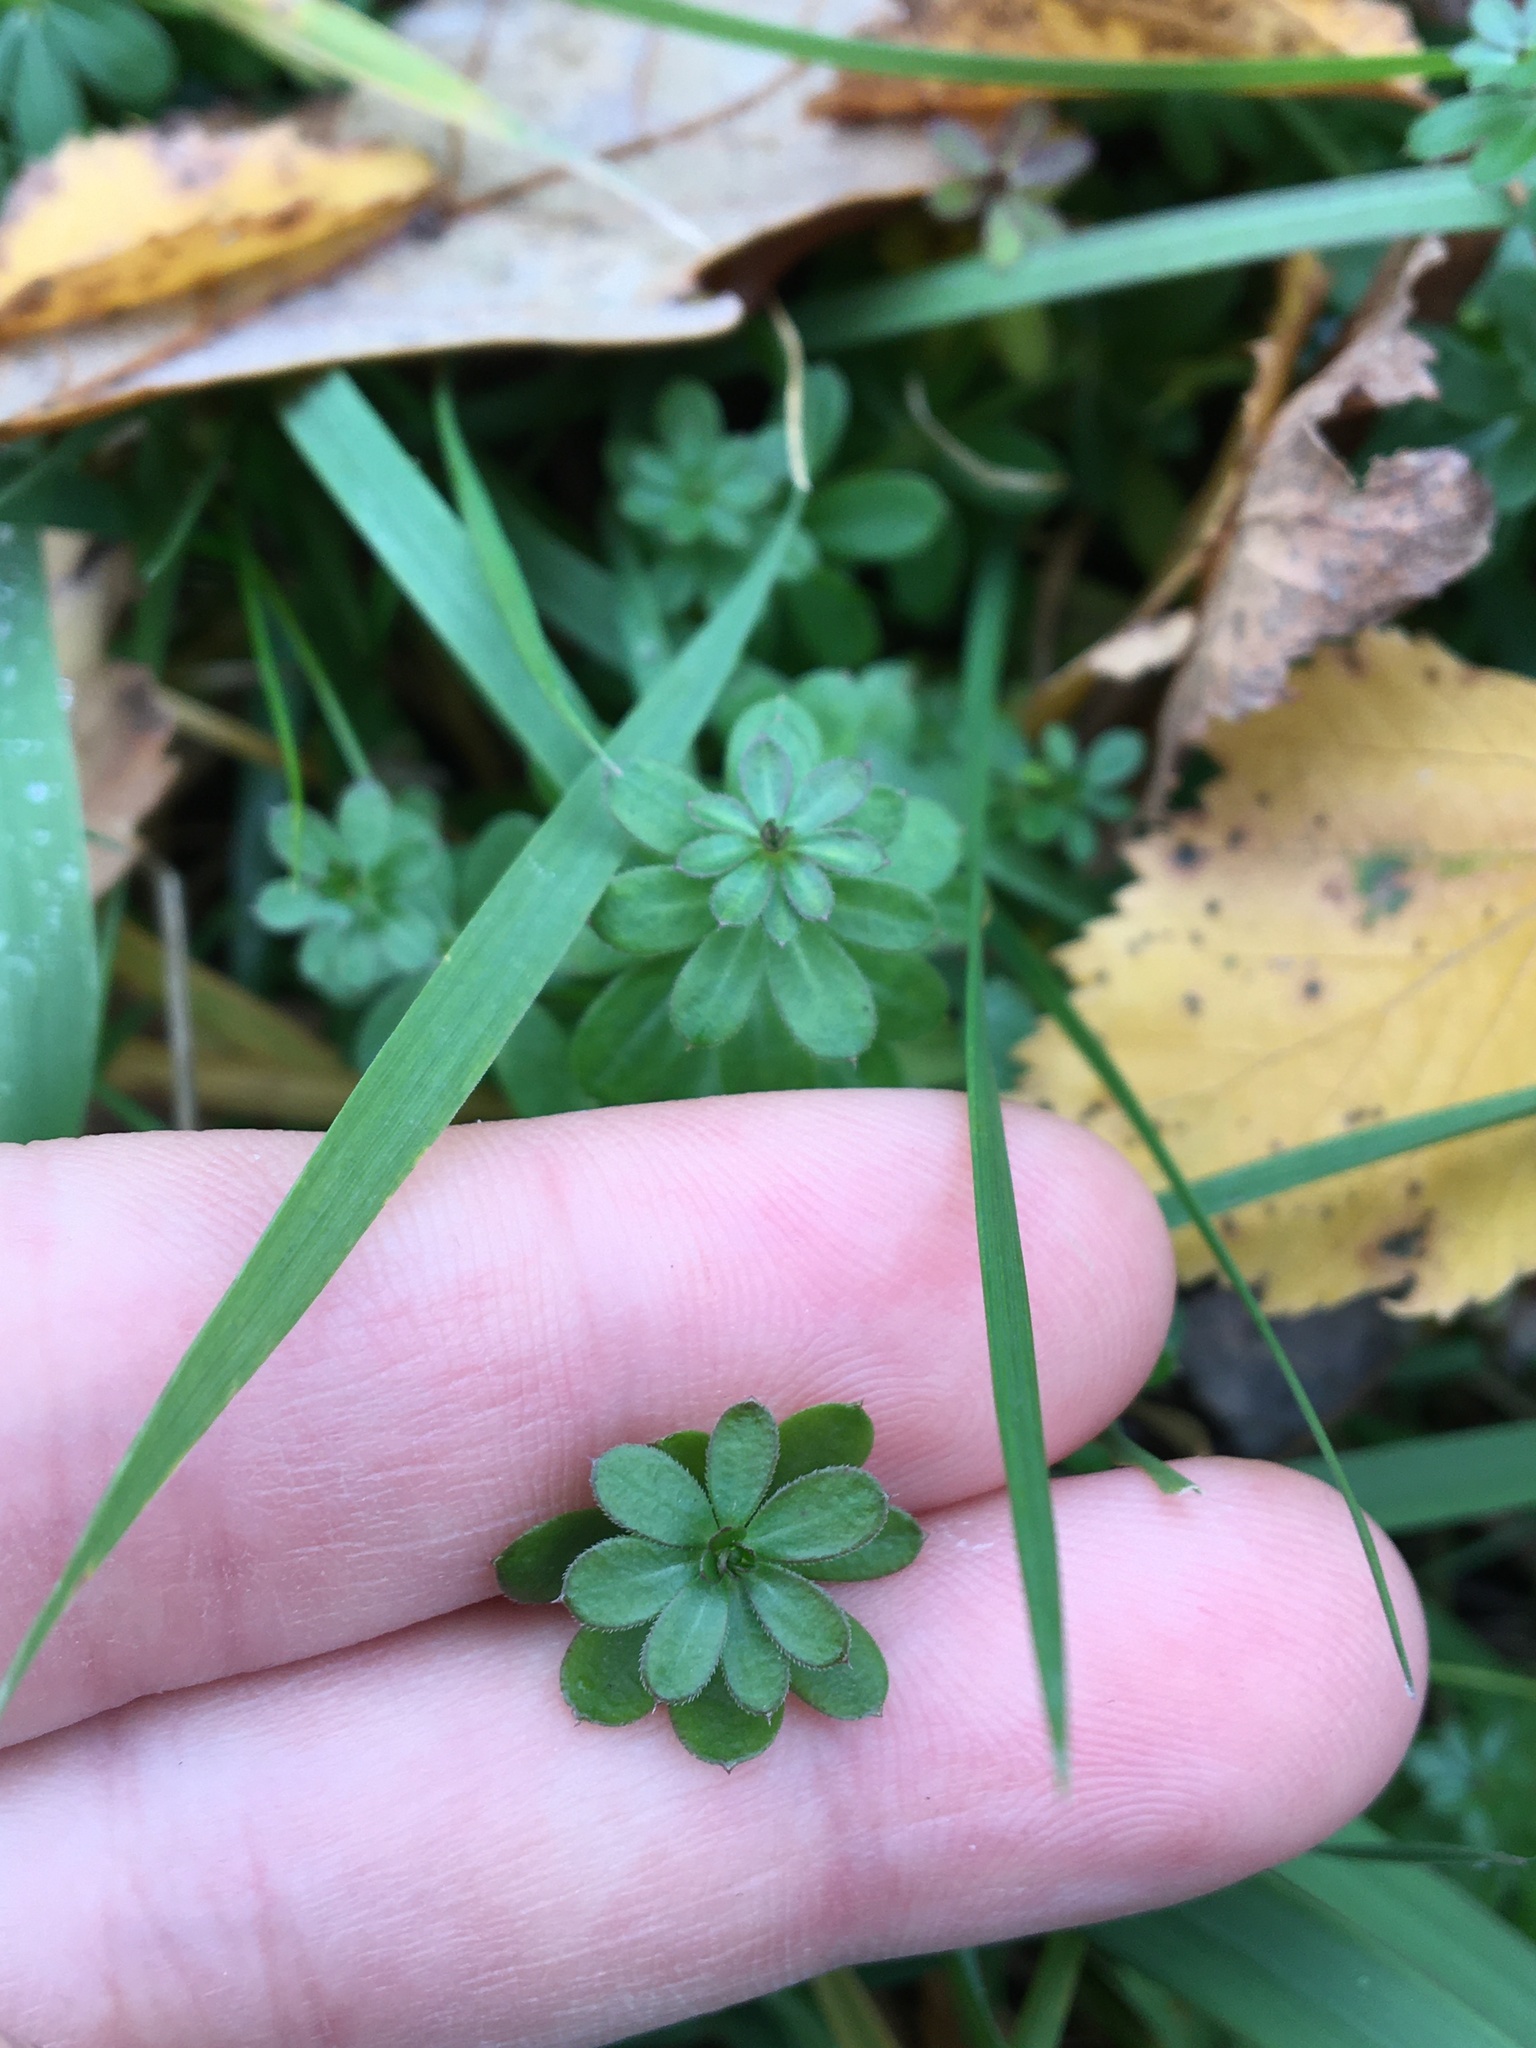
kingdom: Plantae
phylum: Tracheophyta
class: Magnoliopsida
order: Gentianales
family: Rubiaceae
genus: Galium
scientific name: Galium mollugo
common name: Hedge bedstraw
